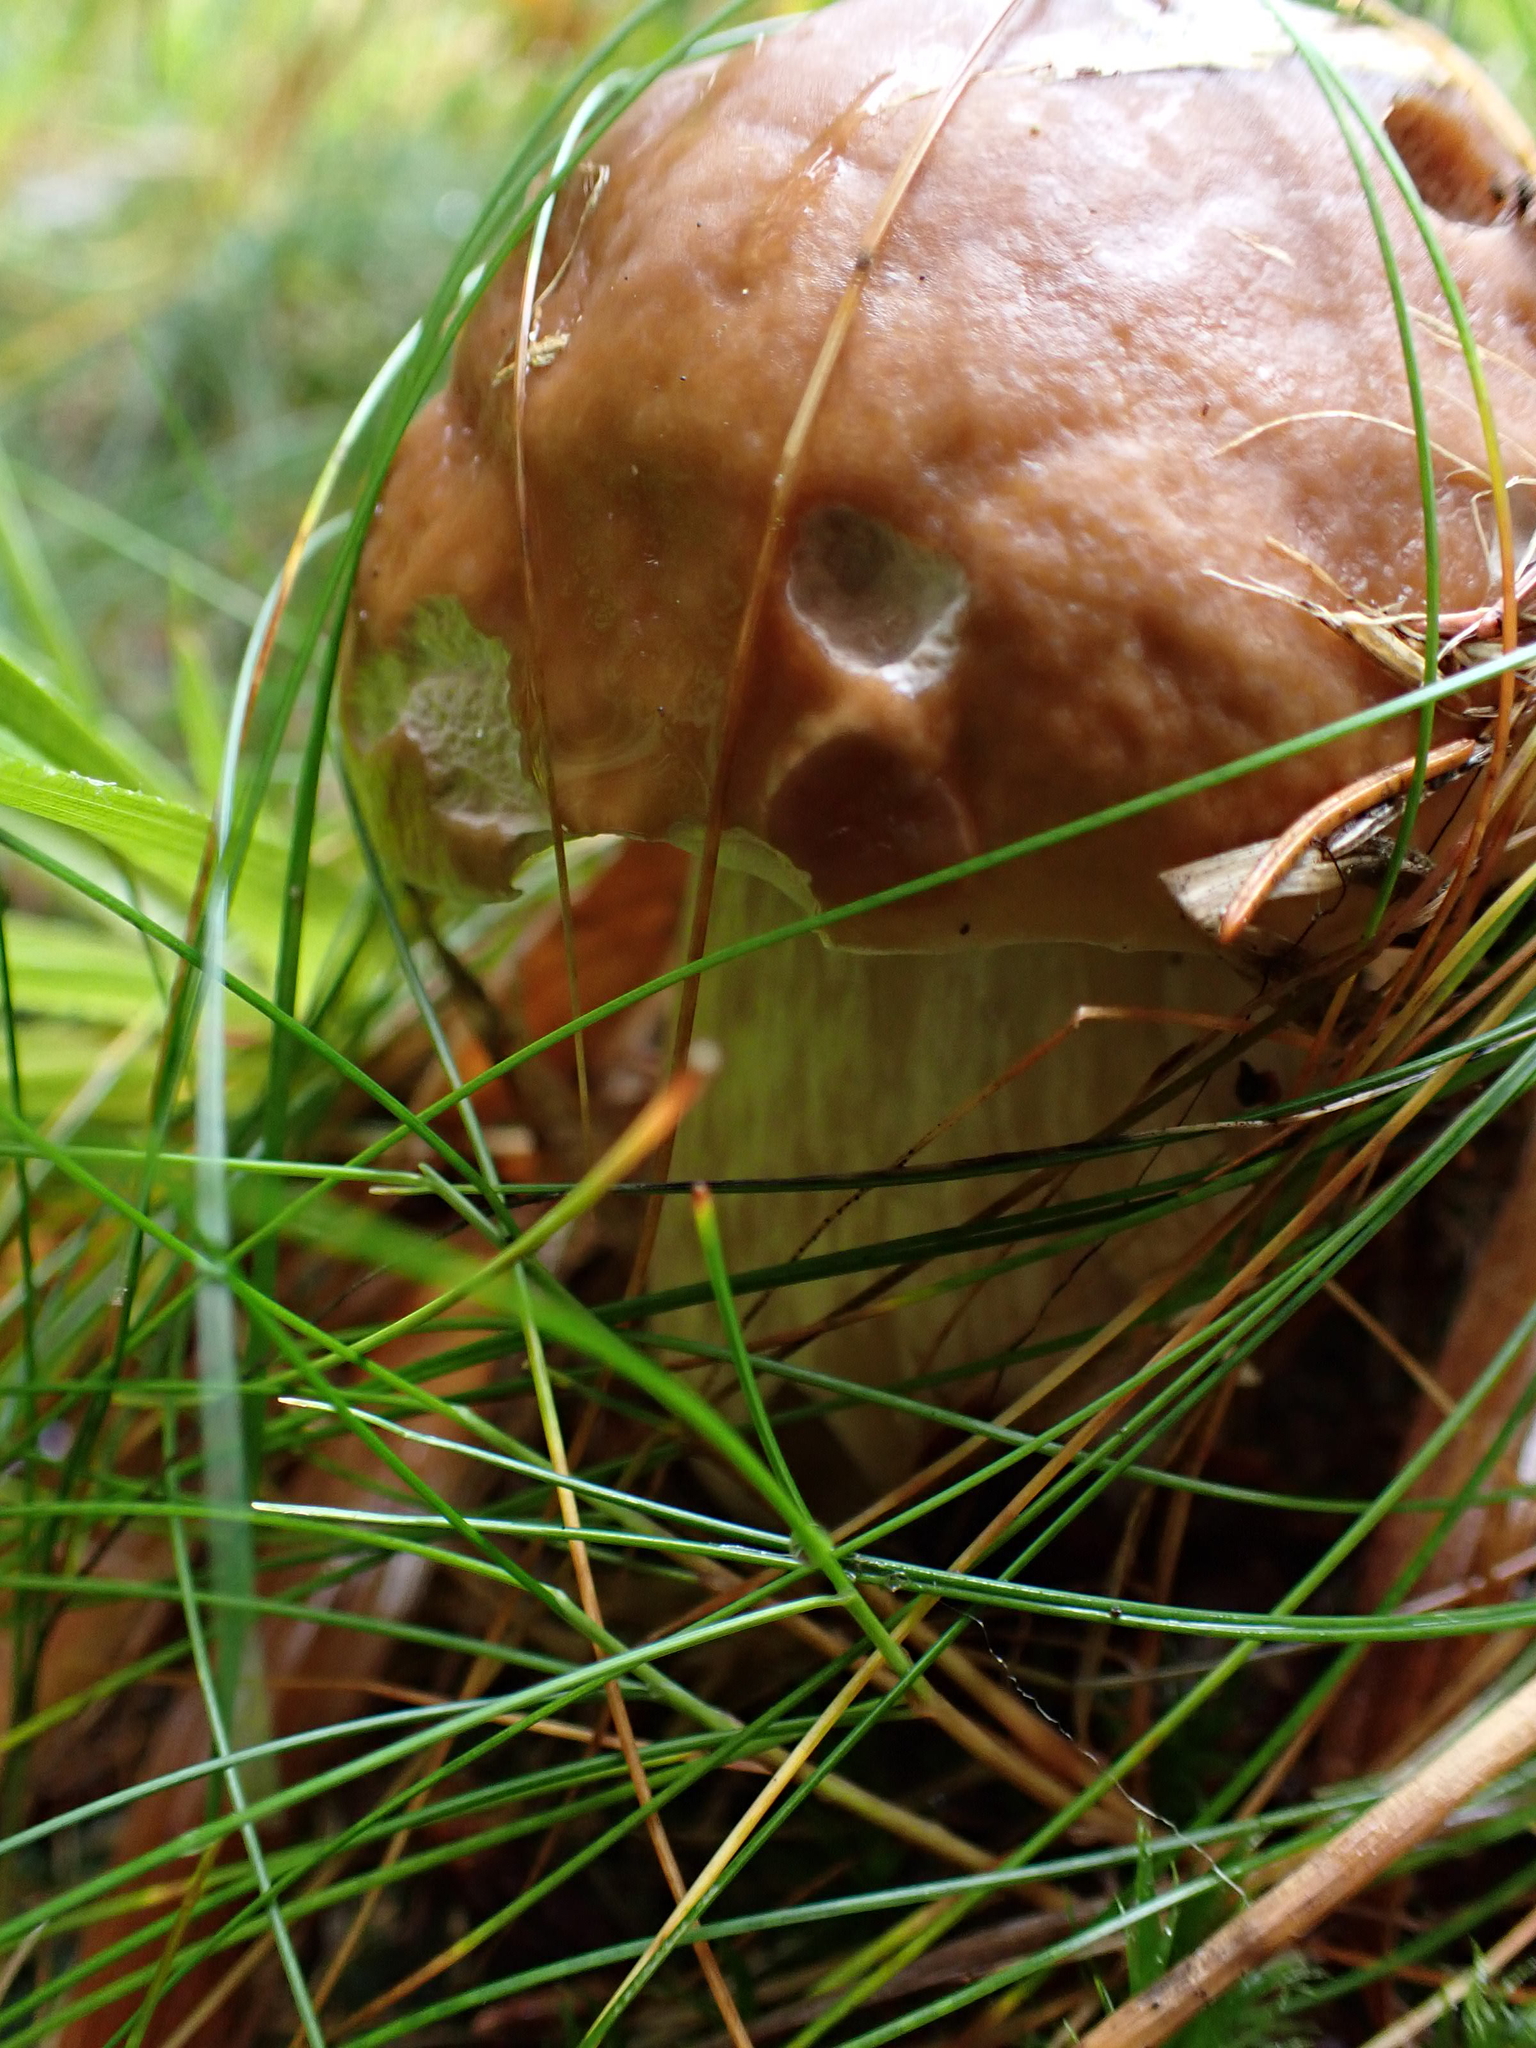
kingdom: Fungi
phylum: Basidiomycota
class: Agaricomycetes
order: Boletales
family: Boletaceae
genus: Boletus
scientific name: Boletus edulis
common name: Cep
